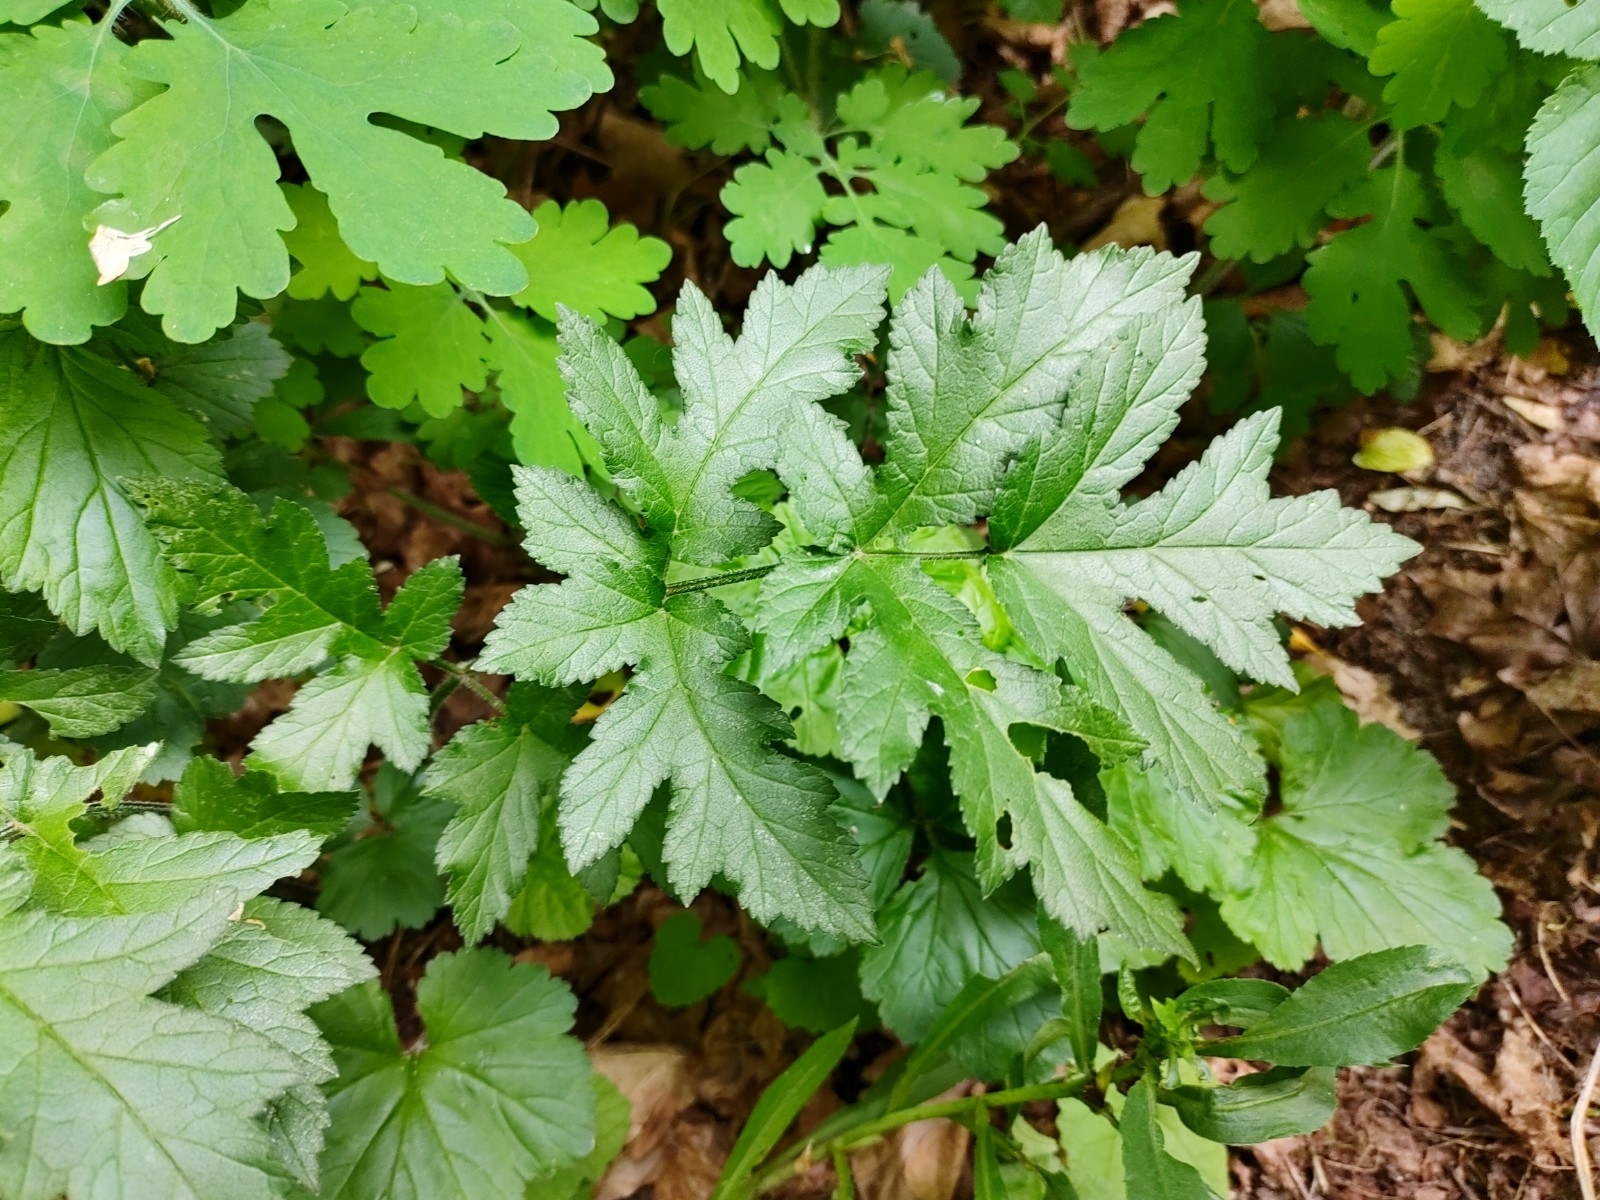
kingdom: Plantae
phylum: Tracheophyta
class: Magnoliopsida
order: Apiales
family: Apiaceae
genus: Heracleum
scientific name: Heracleum sphondylium
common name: Hogweed
